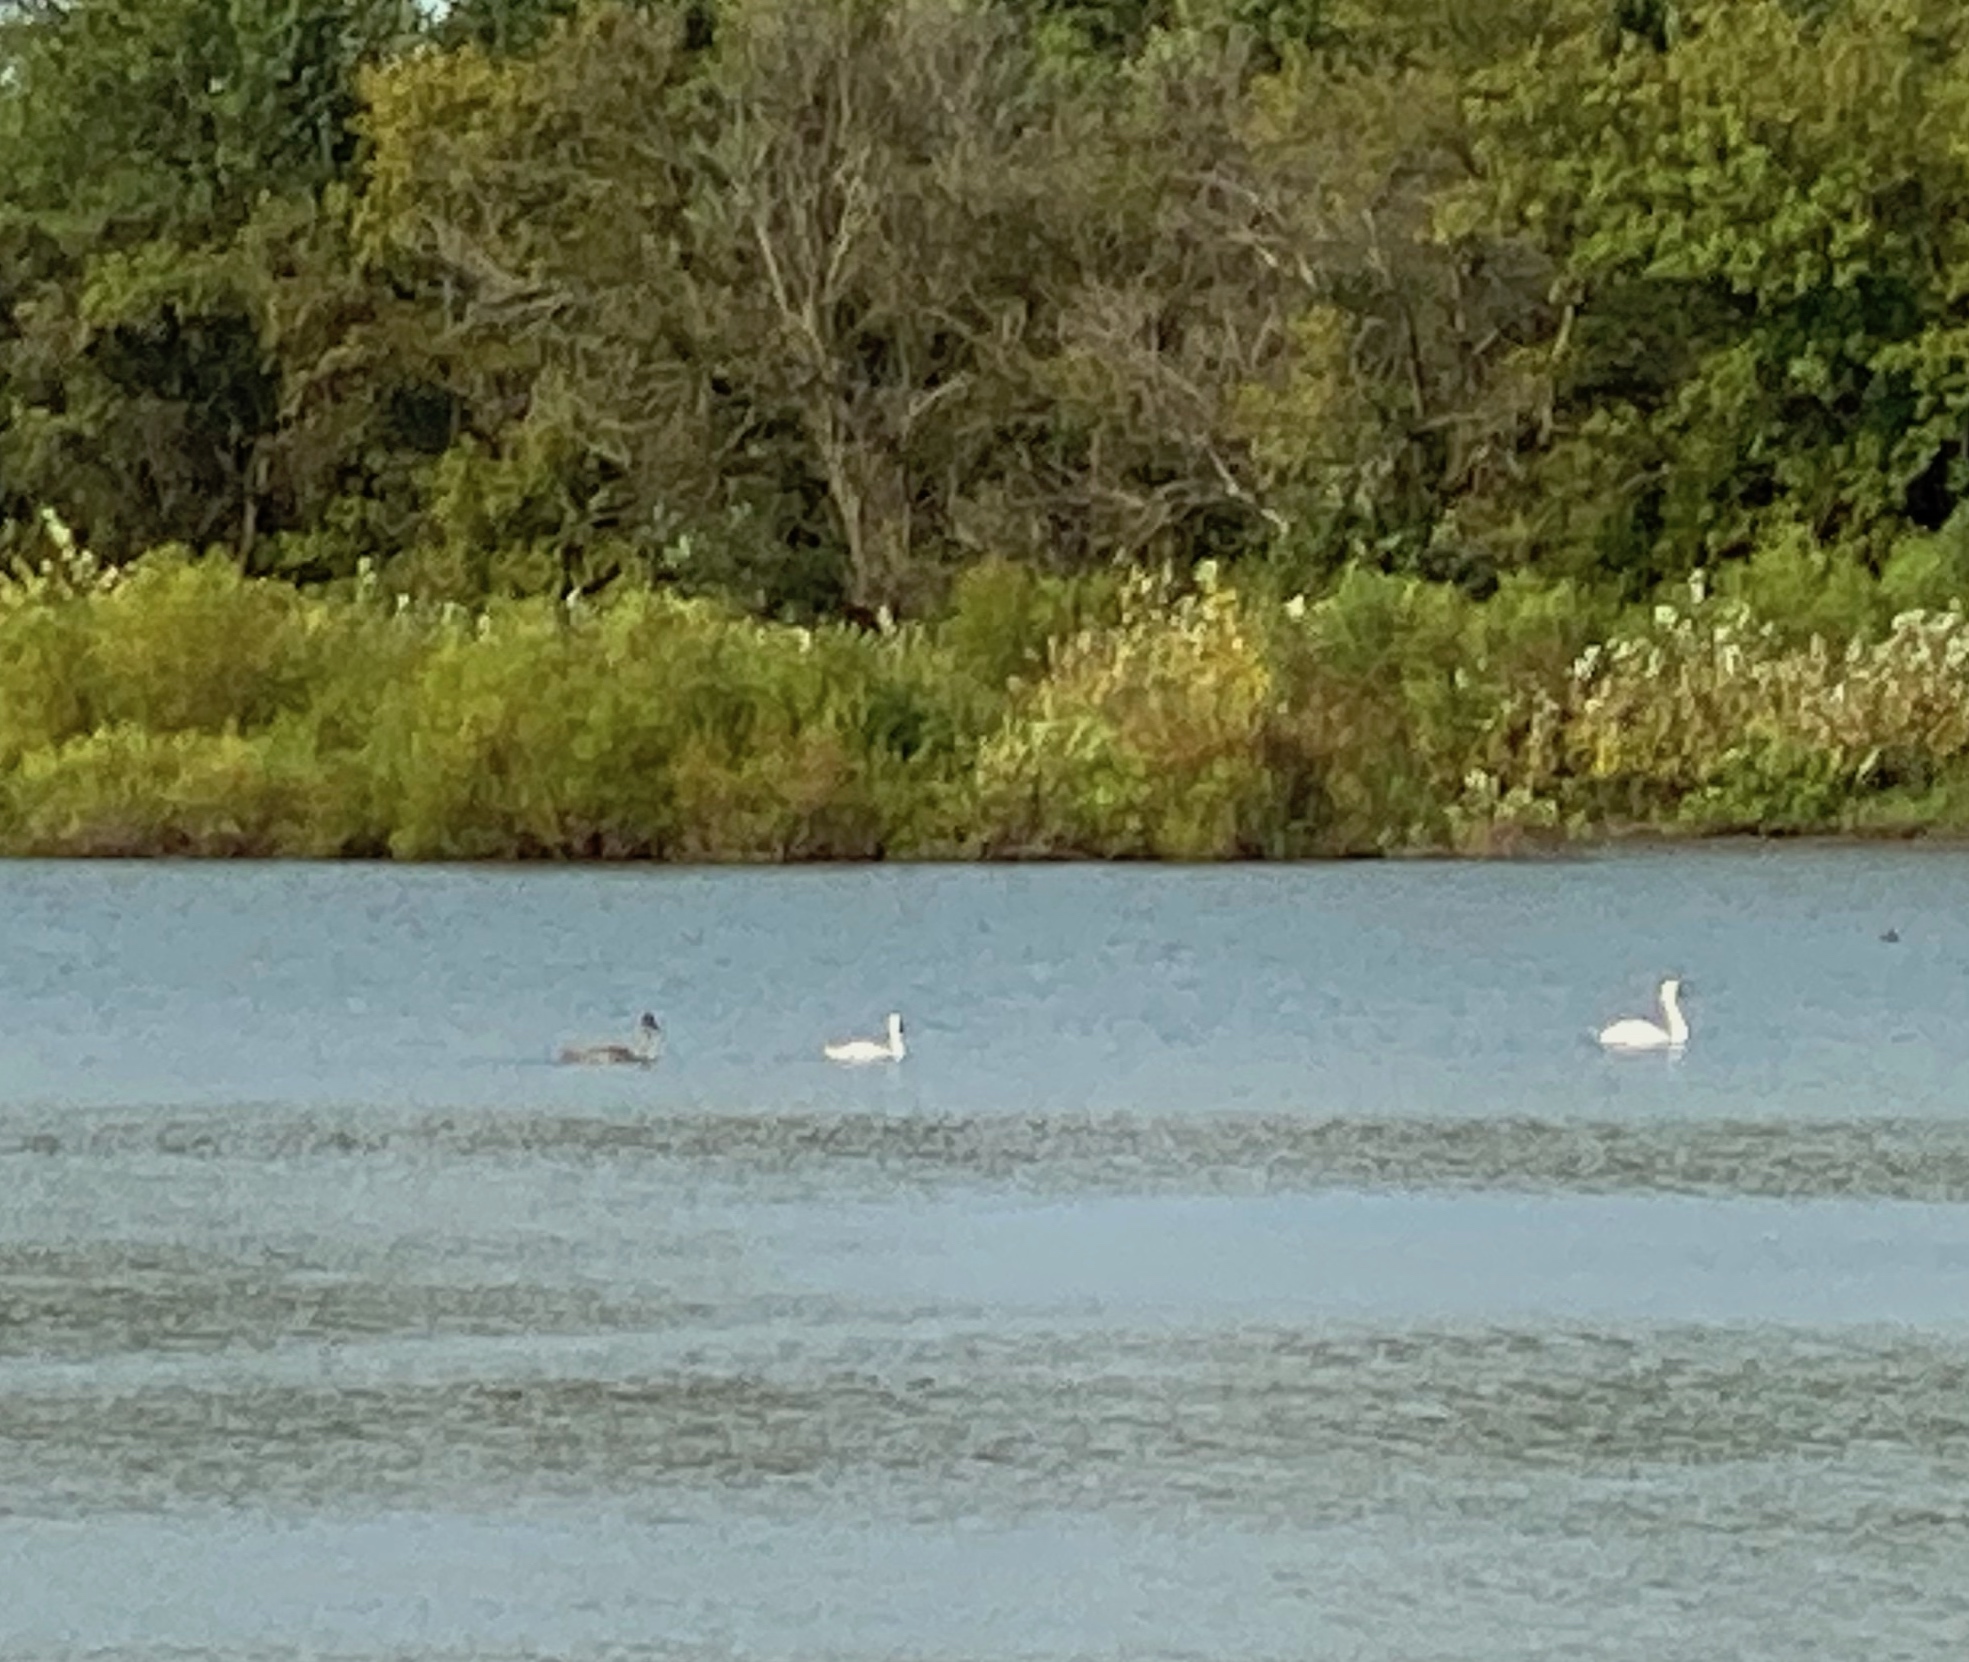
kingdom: Animalia
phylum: Chordata
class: Aves
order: Anseriformes
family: Anatidae
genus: Cygnus
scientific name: Cygnus olor
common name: Mute swan
